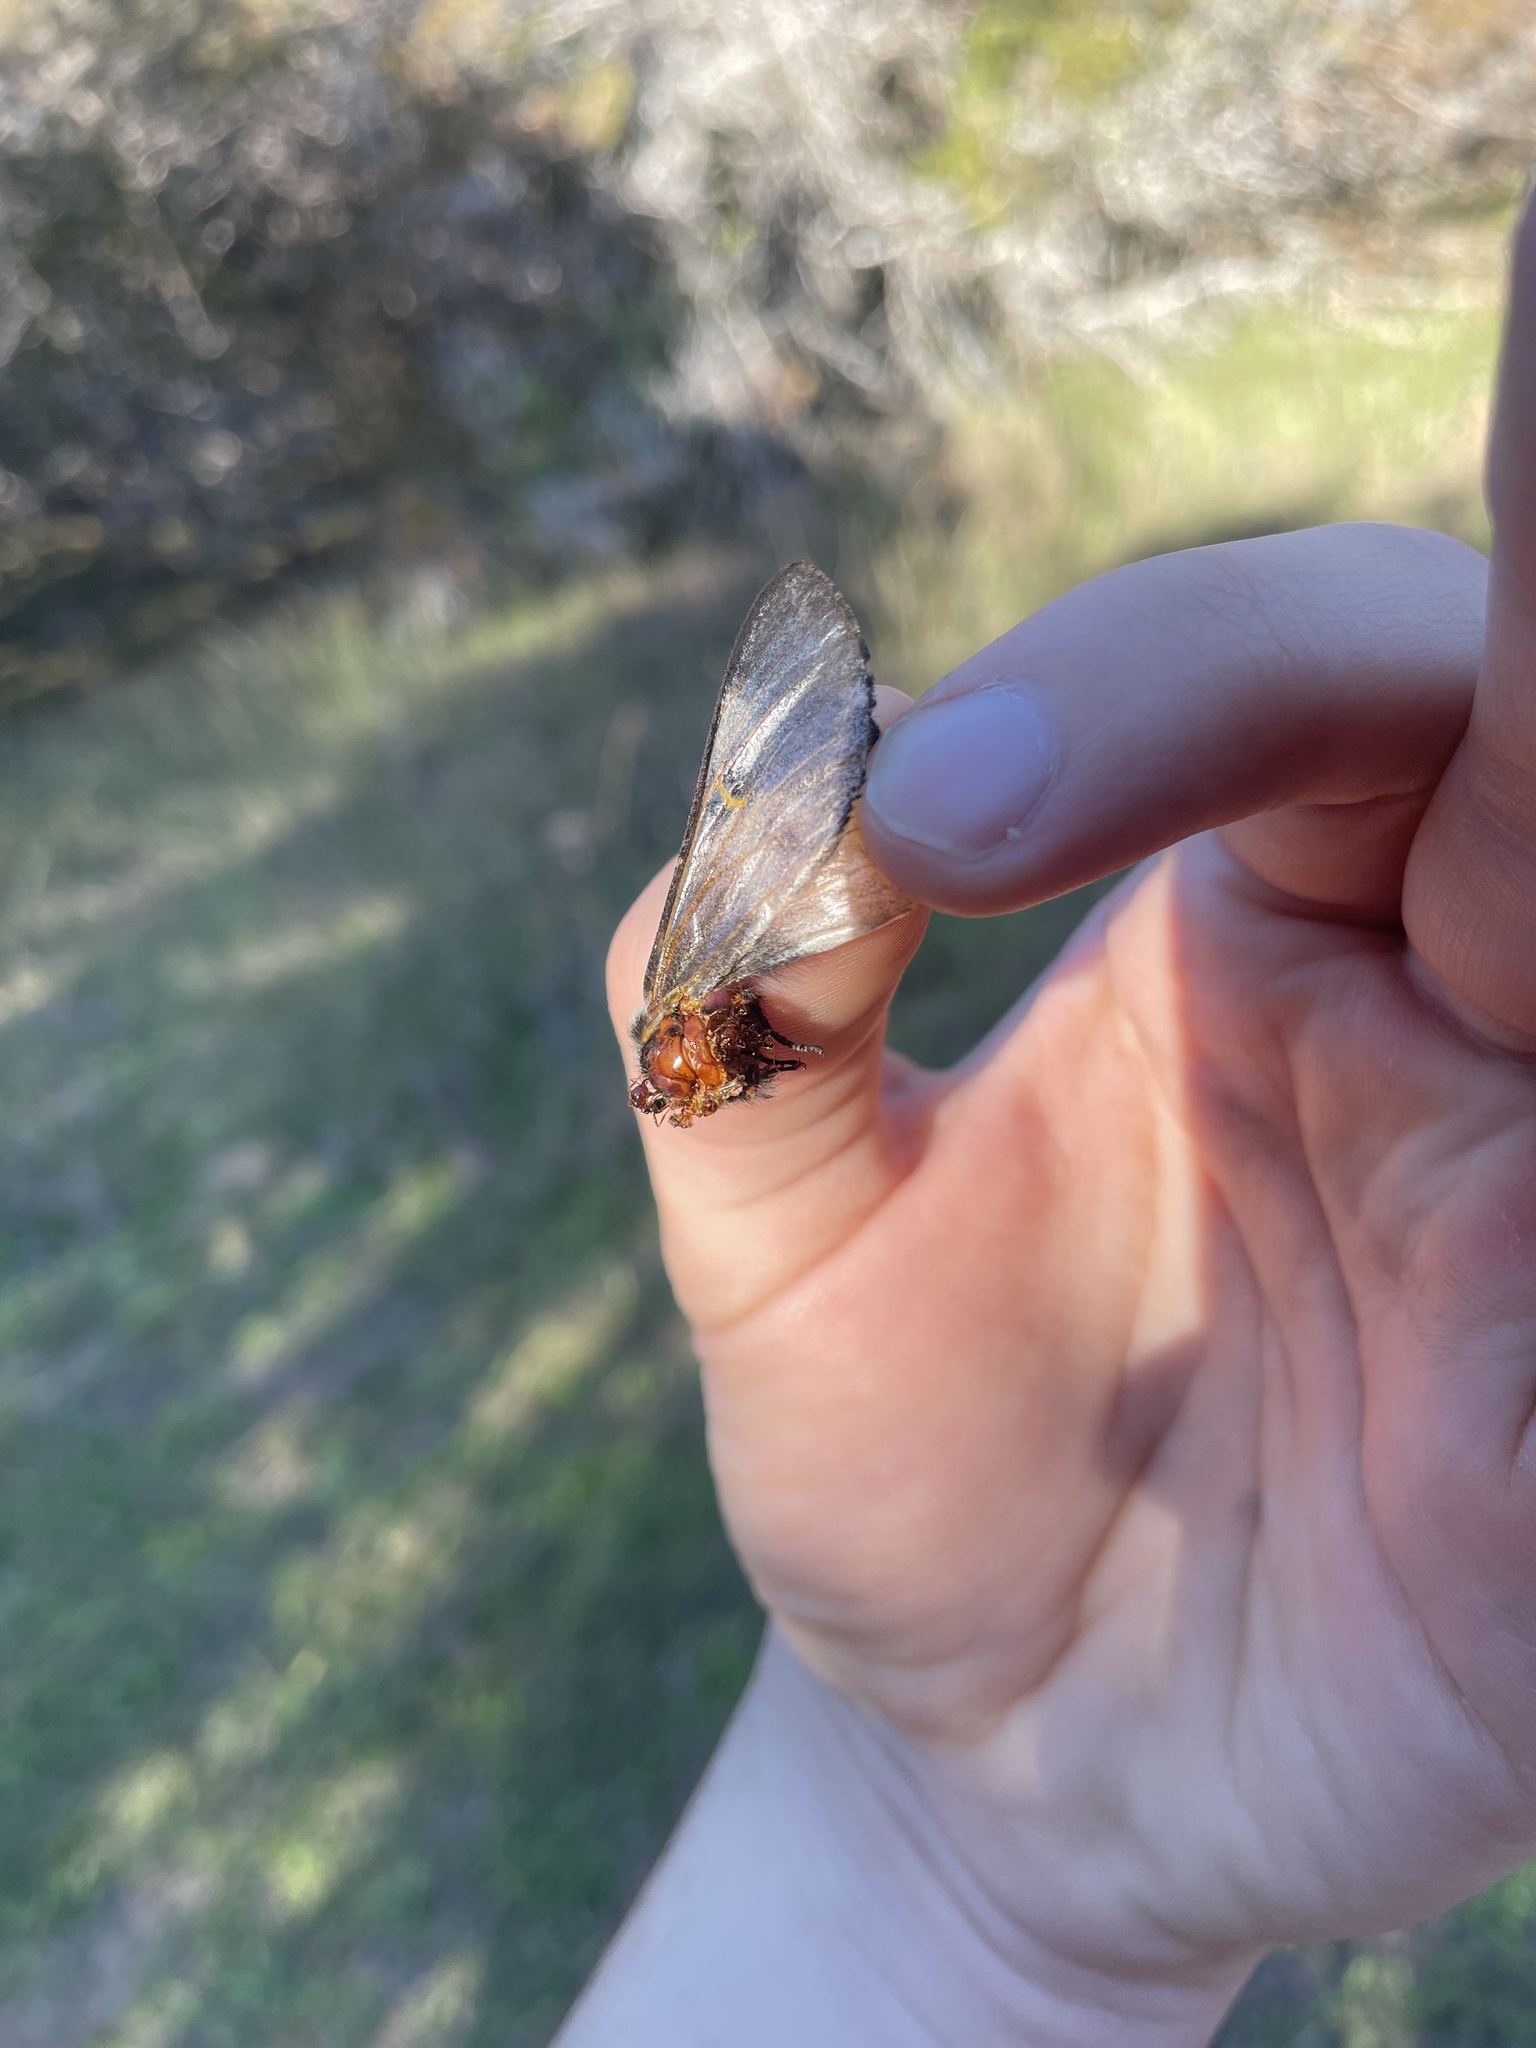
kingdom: Animalia
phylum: Arthropoda
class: Insecta
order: Lepidoptera
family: Saturniidae
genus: Hemileuca
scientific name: Hemileuca peigleri
